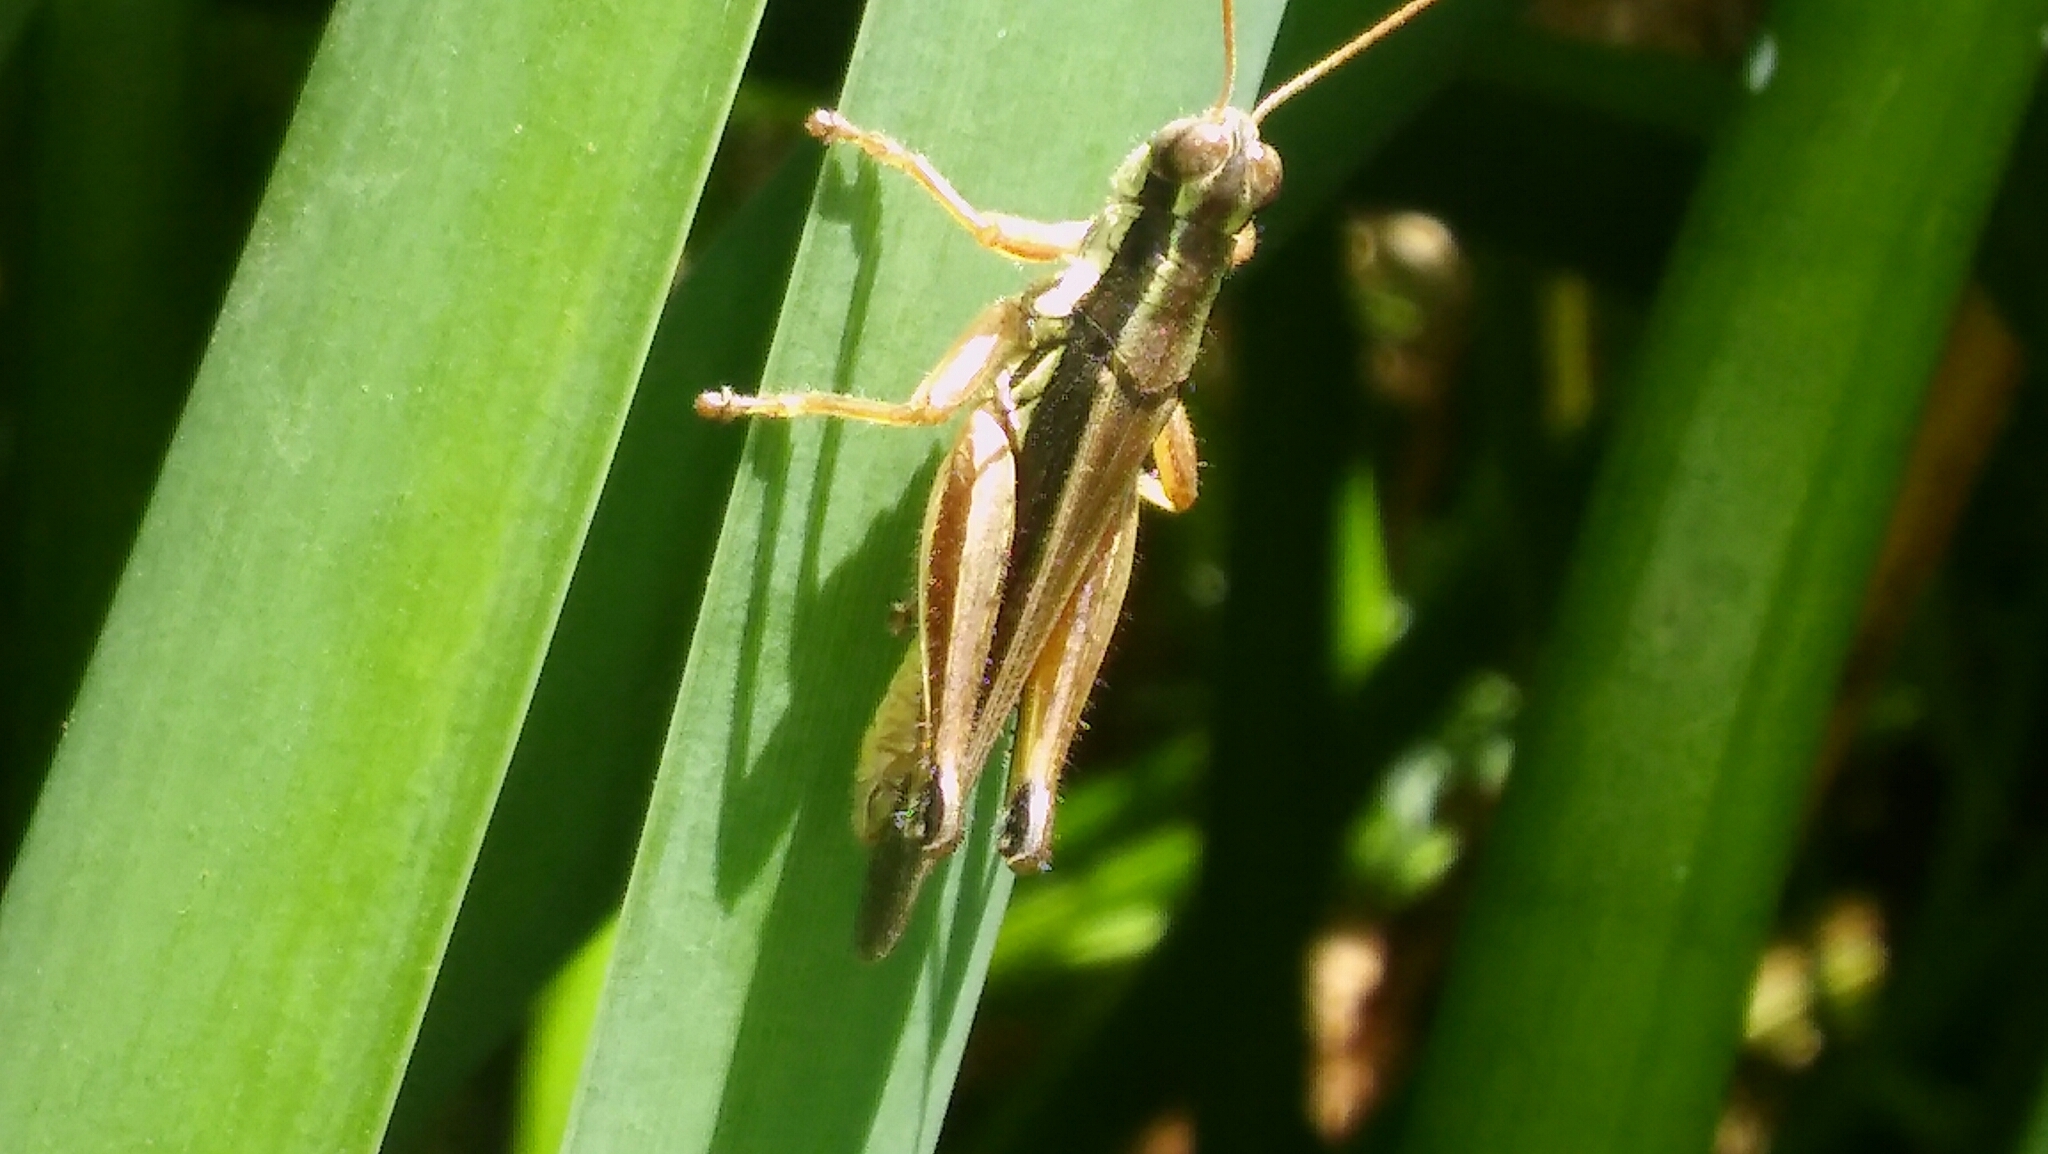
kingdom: Animalia
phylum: Arthropoda
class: Insecta
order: Orthoptera
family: Acrididae
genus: Dichroplus
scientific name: Dichroplus elongatus
